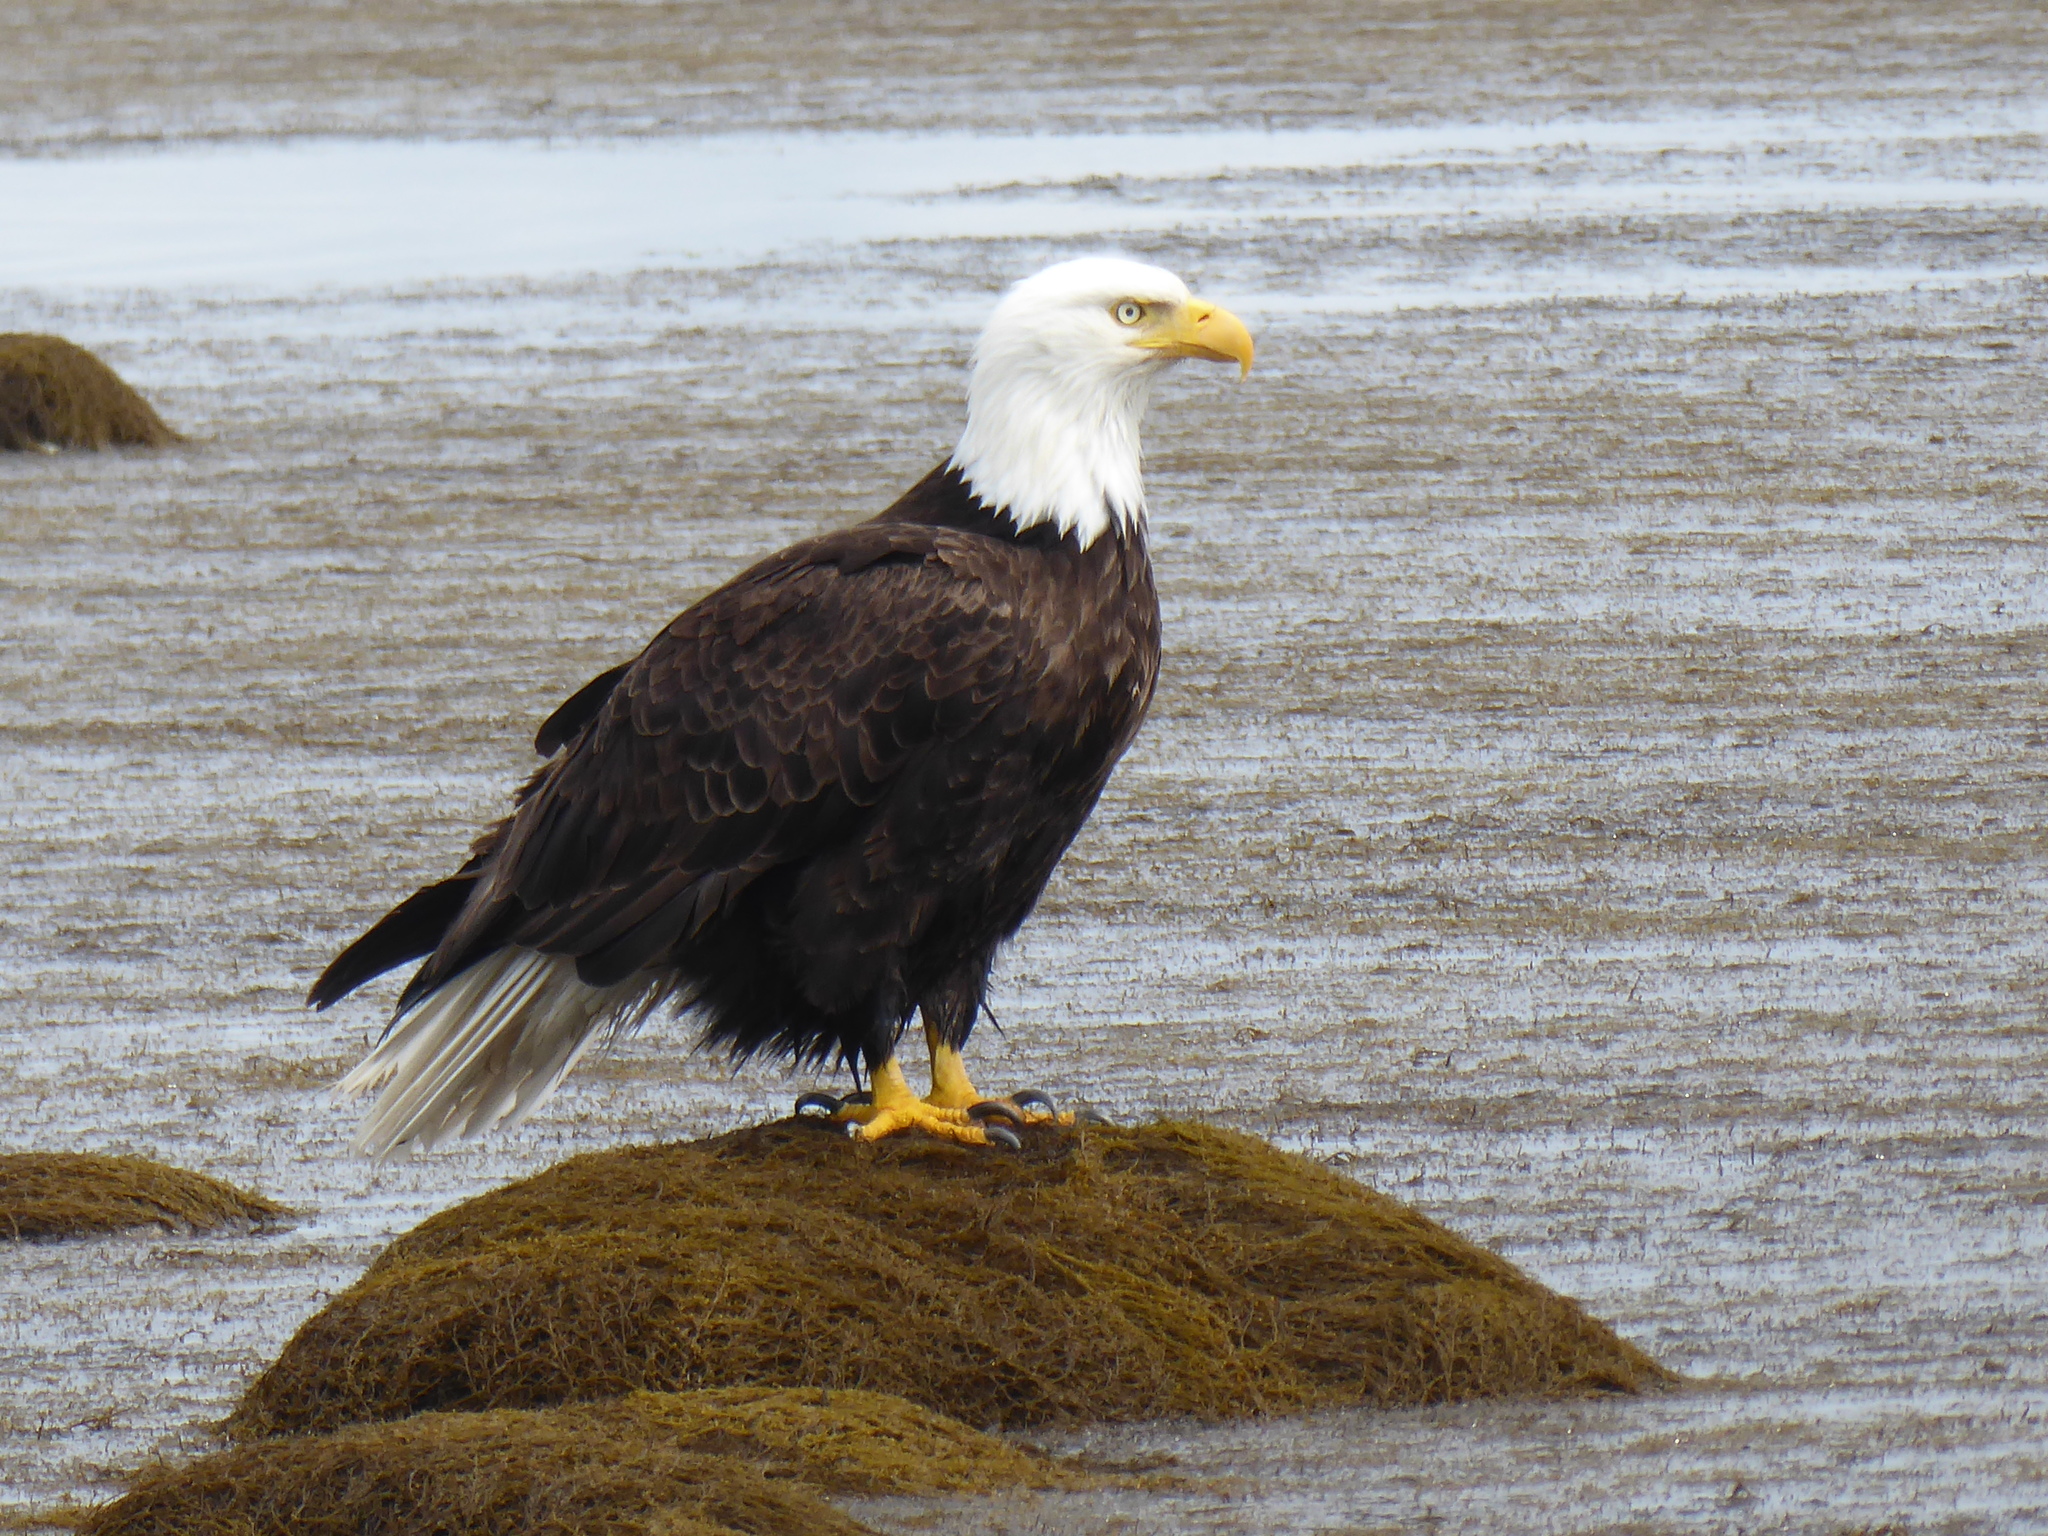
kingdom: Animalia
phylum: Chordata
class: Aves
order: Accipitriformes
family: Accipitridae
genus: Haliaeetus
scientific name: Haliaeetus leucocephalus
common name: Bald eagle
